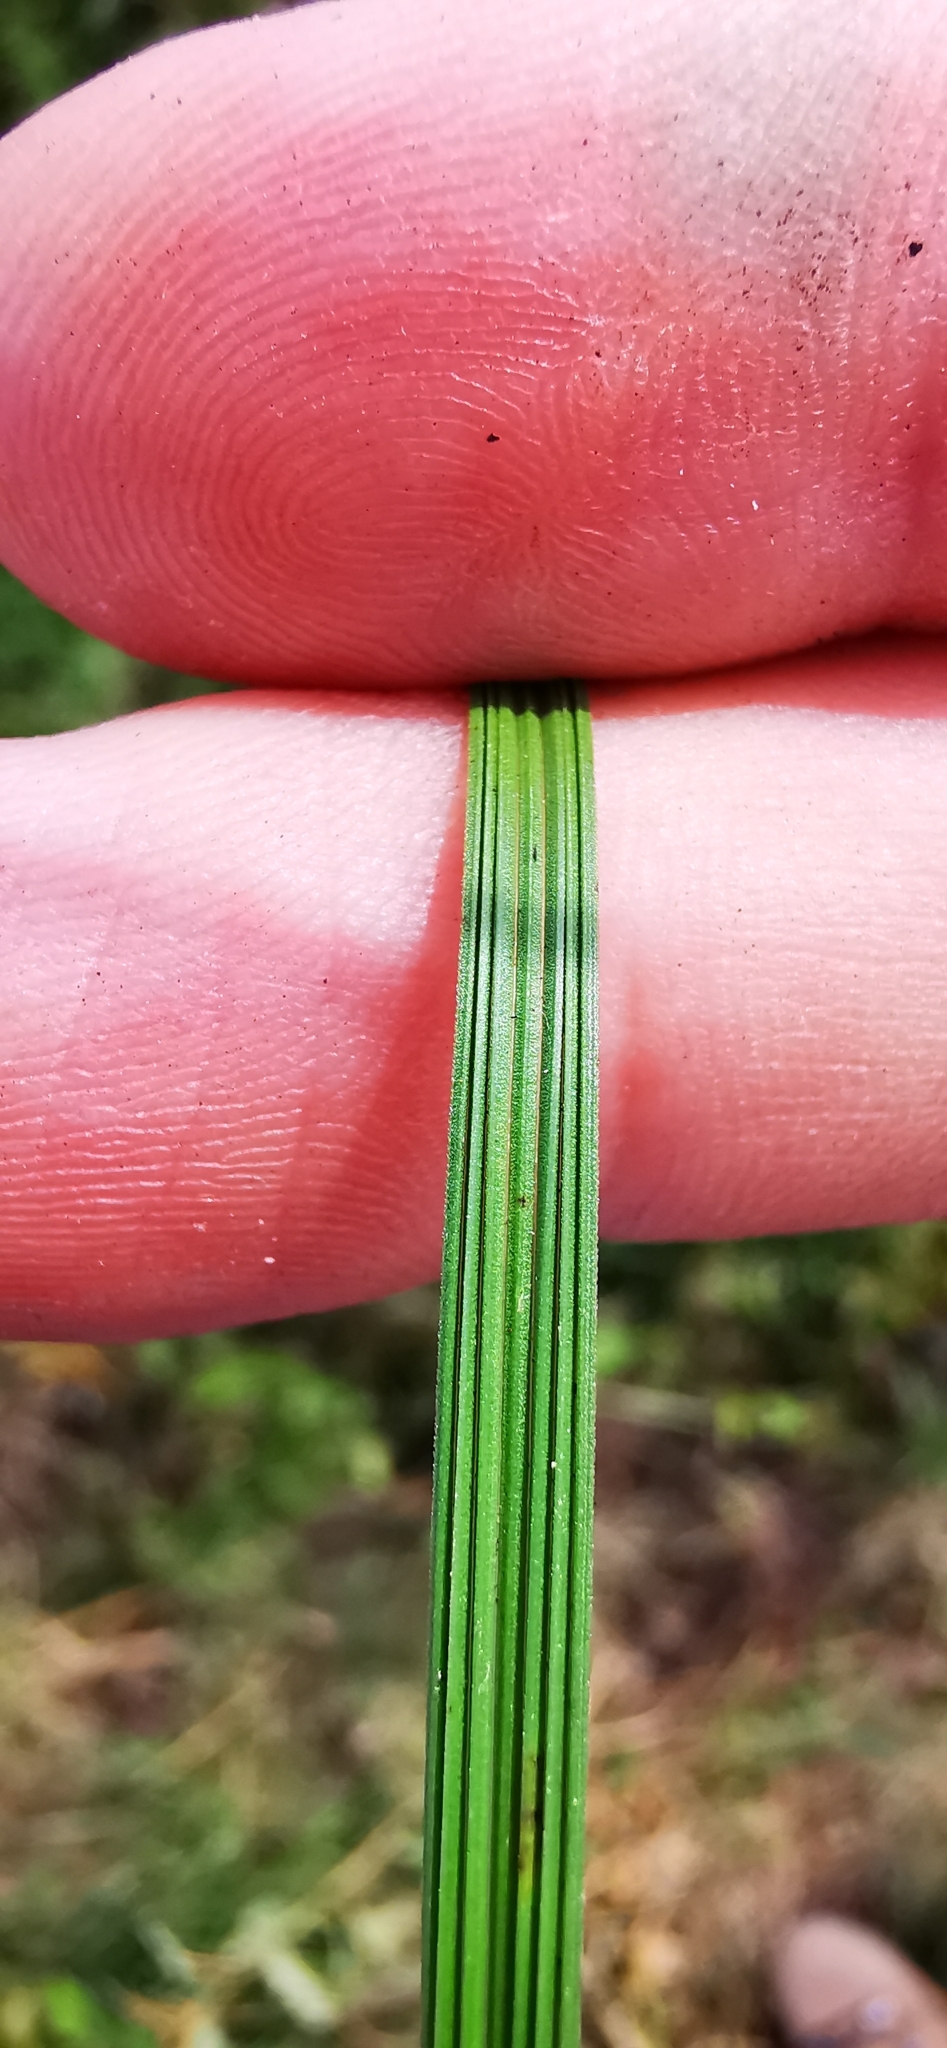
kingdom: Plantae
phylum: Tracheophyta
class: Liliopsida
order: Poales
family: Poaceae
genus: Deschampsia
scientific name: Deschampsia cespitosa
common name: Tufted hair-grass
